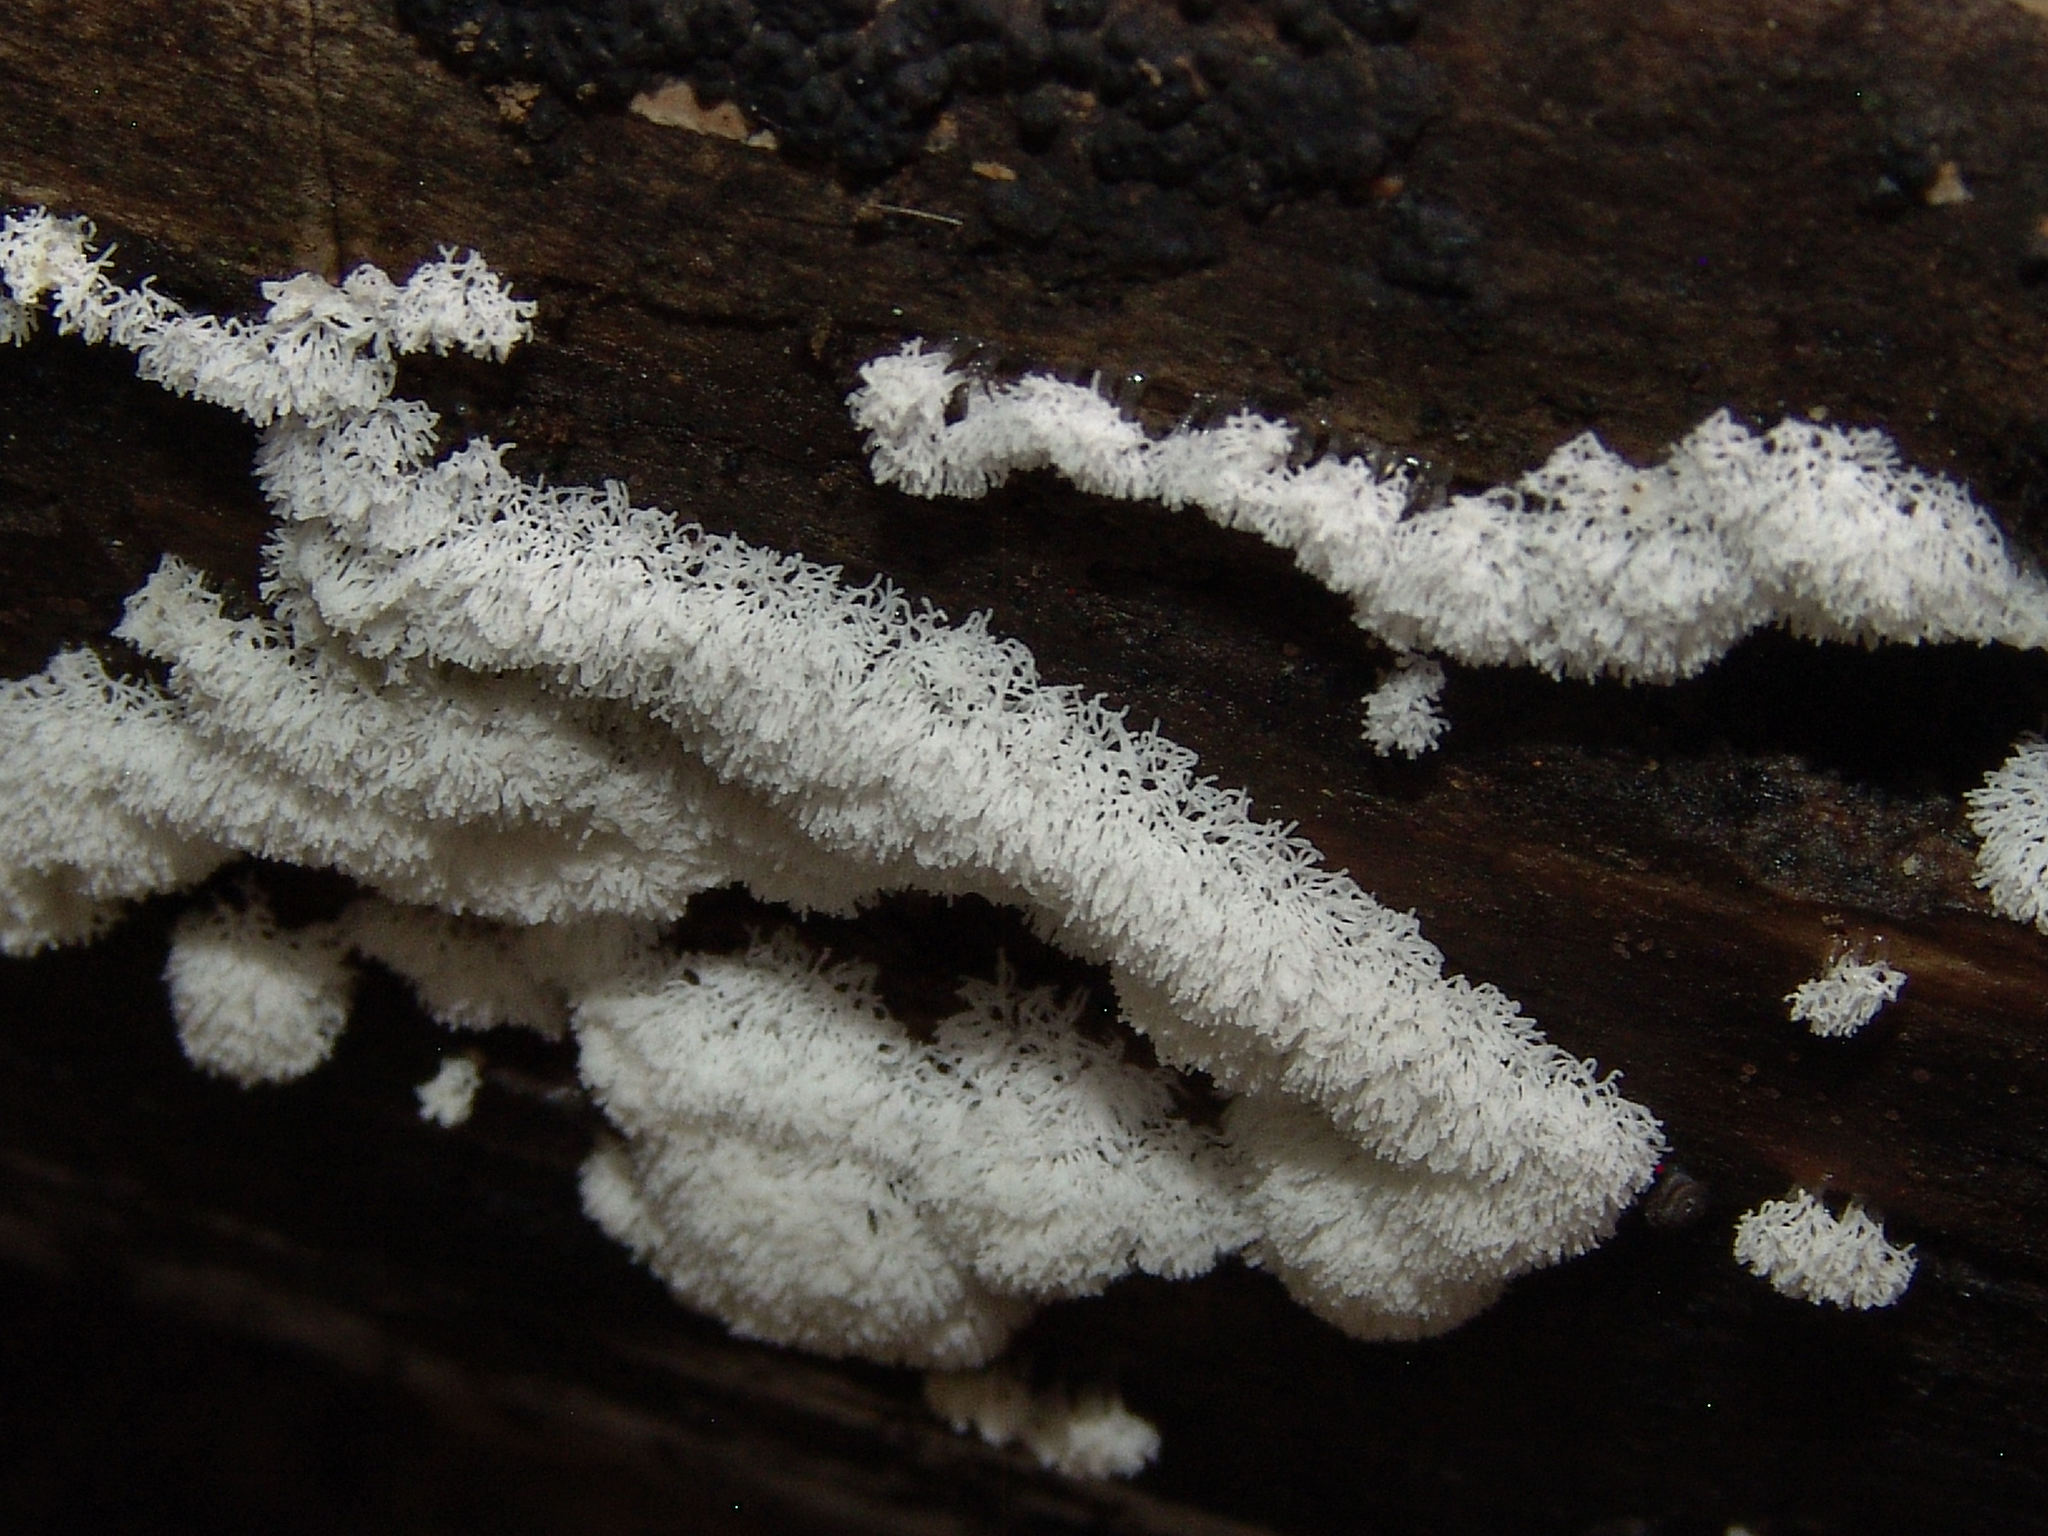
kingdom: Protozoa
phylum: Mycetozoa
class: Protosteliomycetes
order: Ceratiomyxales
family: Ceratiomyxaceae
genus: Ceratiomyxa
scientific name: Ceratiomyxa fruticulosa
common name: Honeycomb coral slime mold
